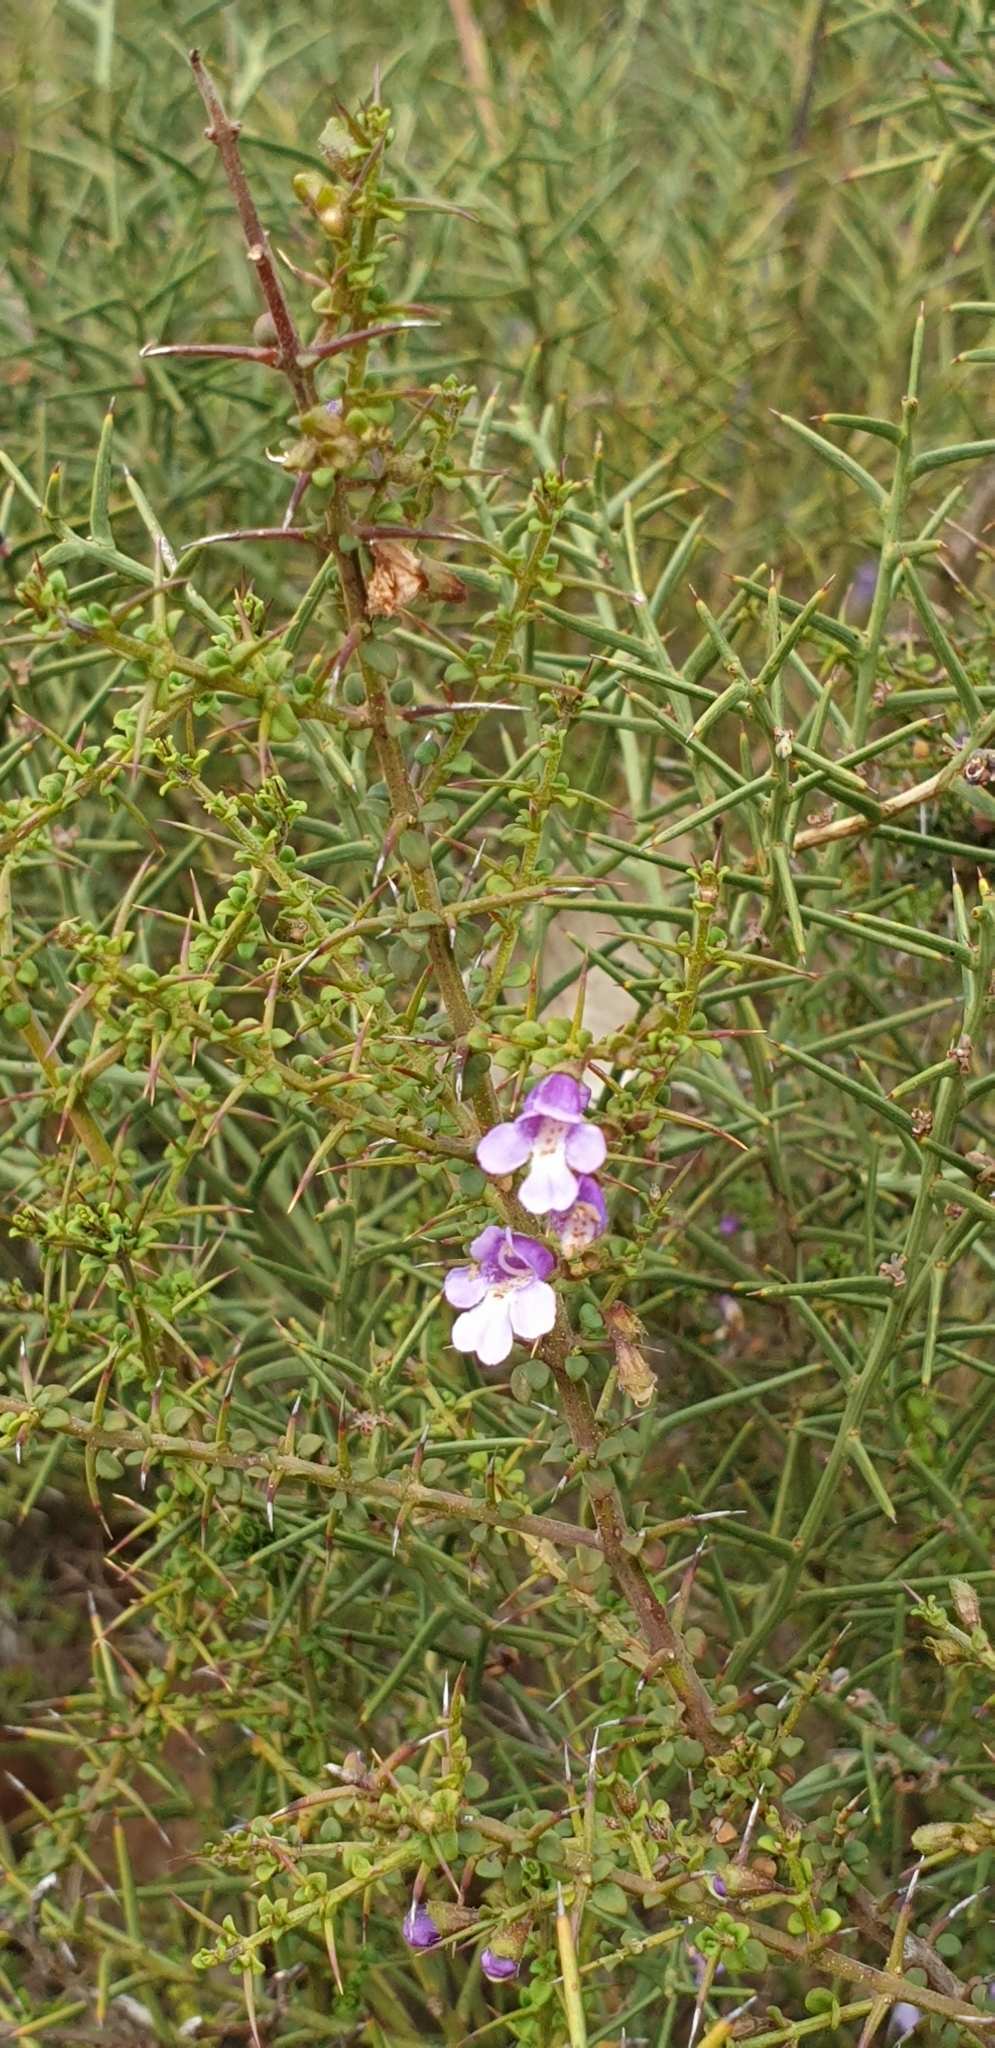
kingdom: Plantae
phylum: Tracheophyta
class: Magnoliopsida
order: Lamiales
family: Lamiaceae
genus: Prostanthera
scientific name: Prostanthera spinosa
